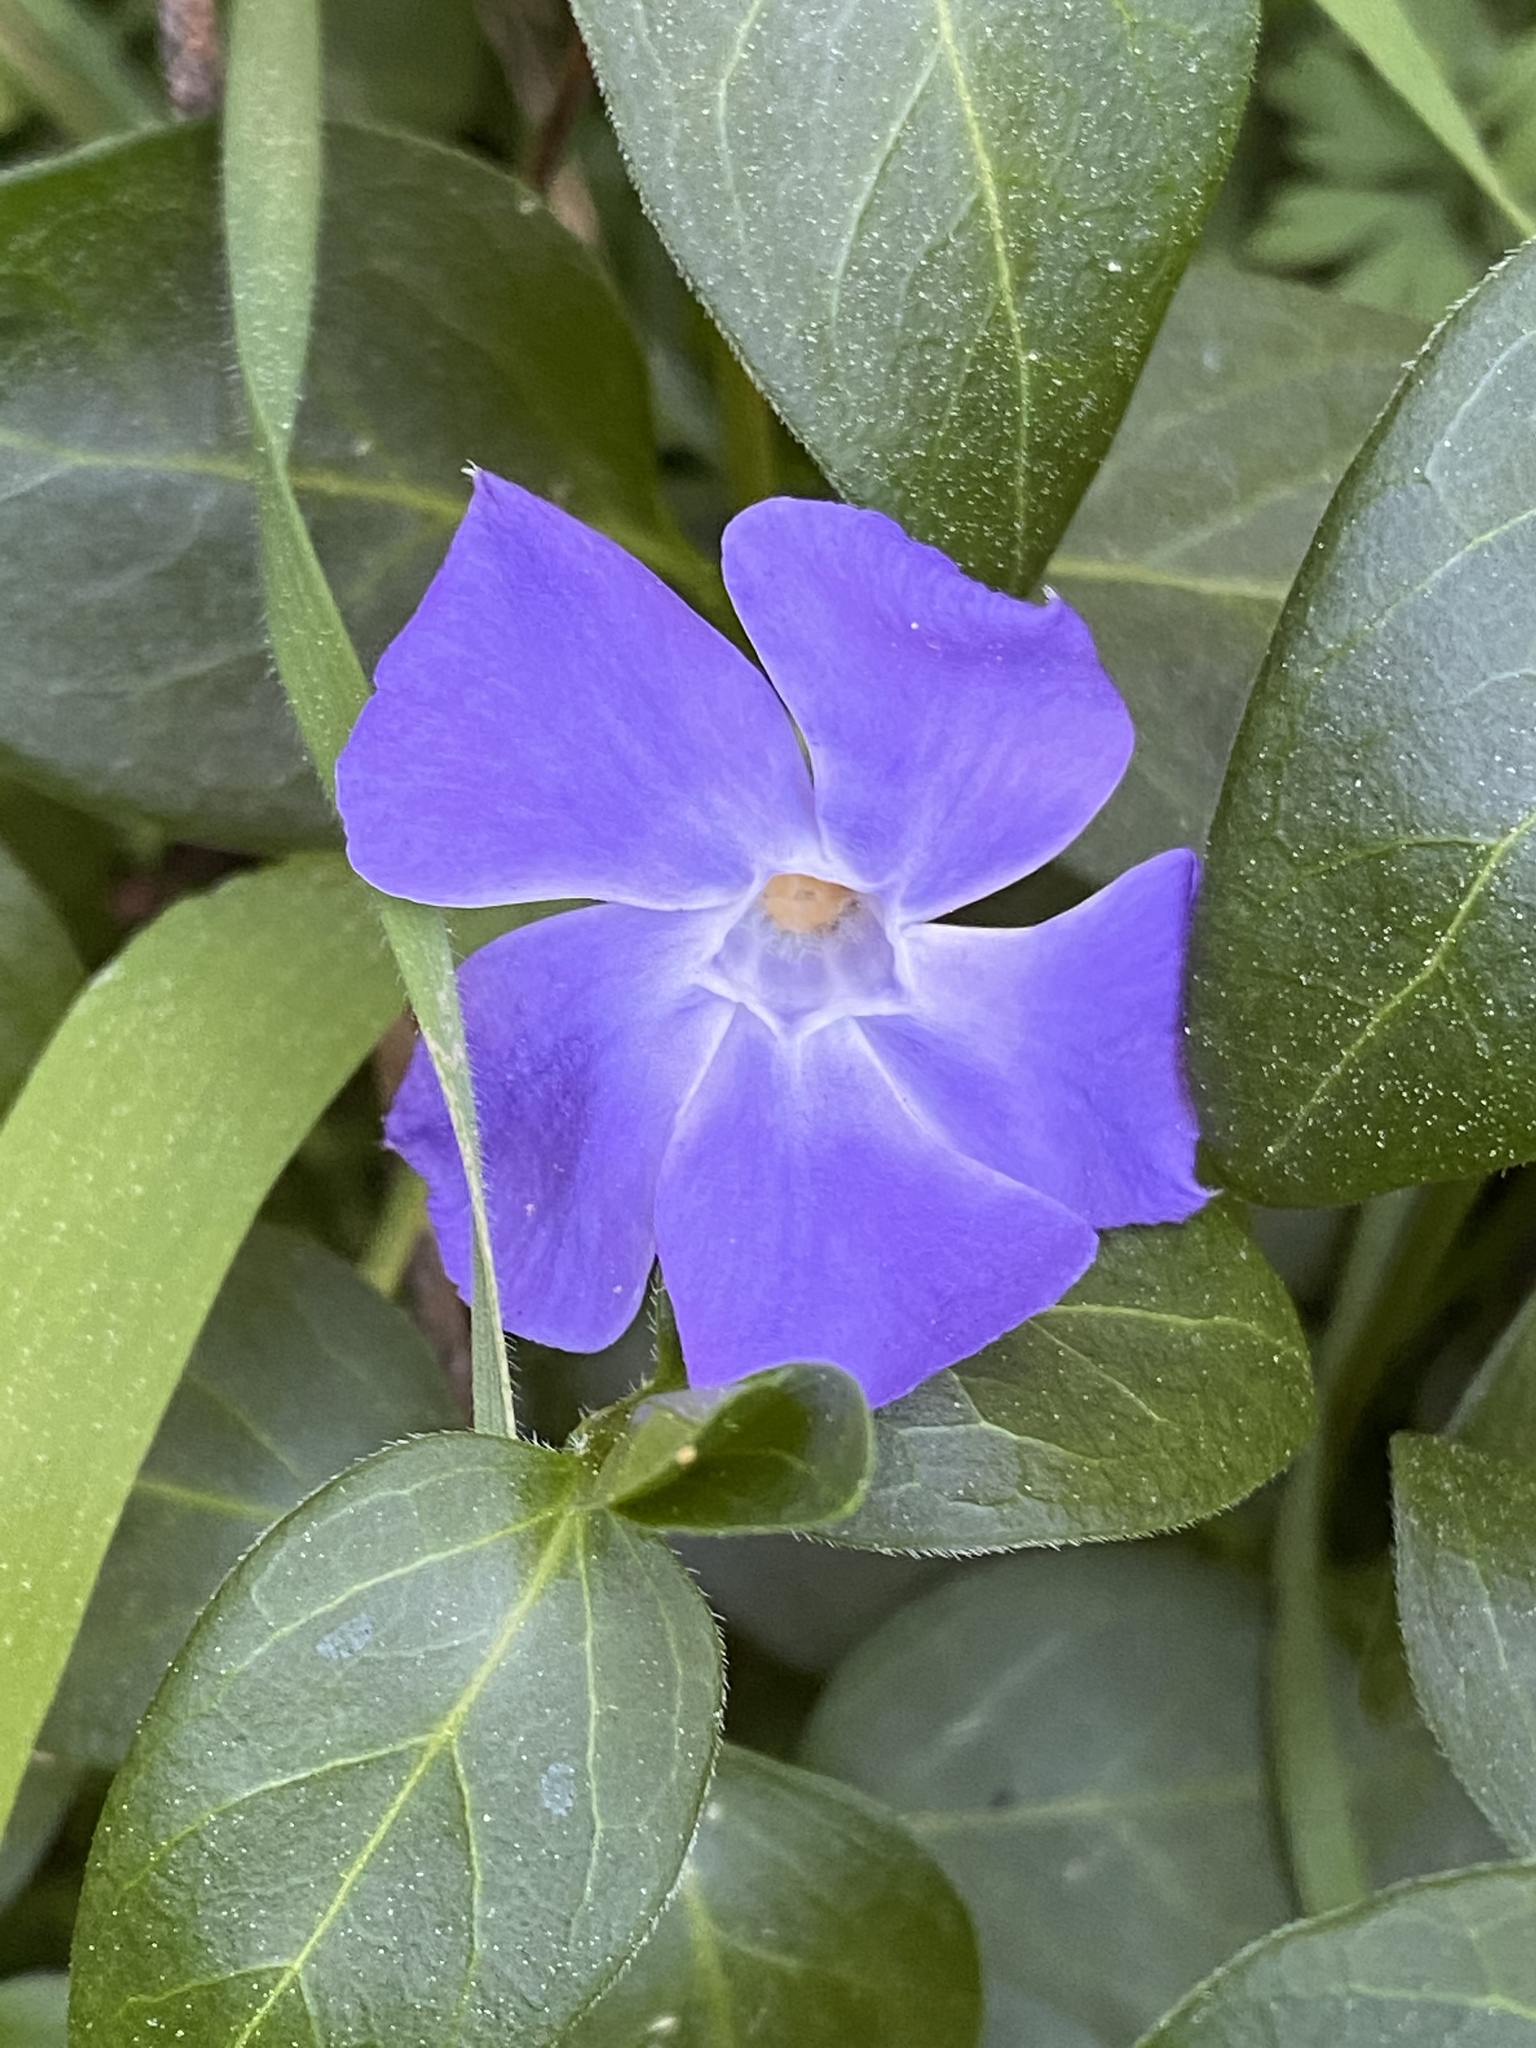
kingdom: Plantae
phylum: Tracheophyta
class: Magnoliopsida
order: Gentianales
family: Apocynaceae
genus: Vinca
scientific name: Vinca major
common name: Greater periwinkle
